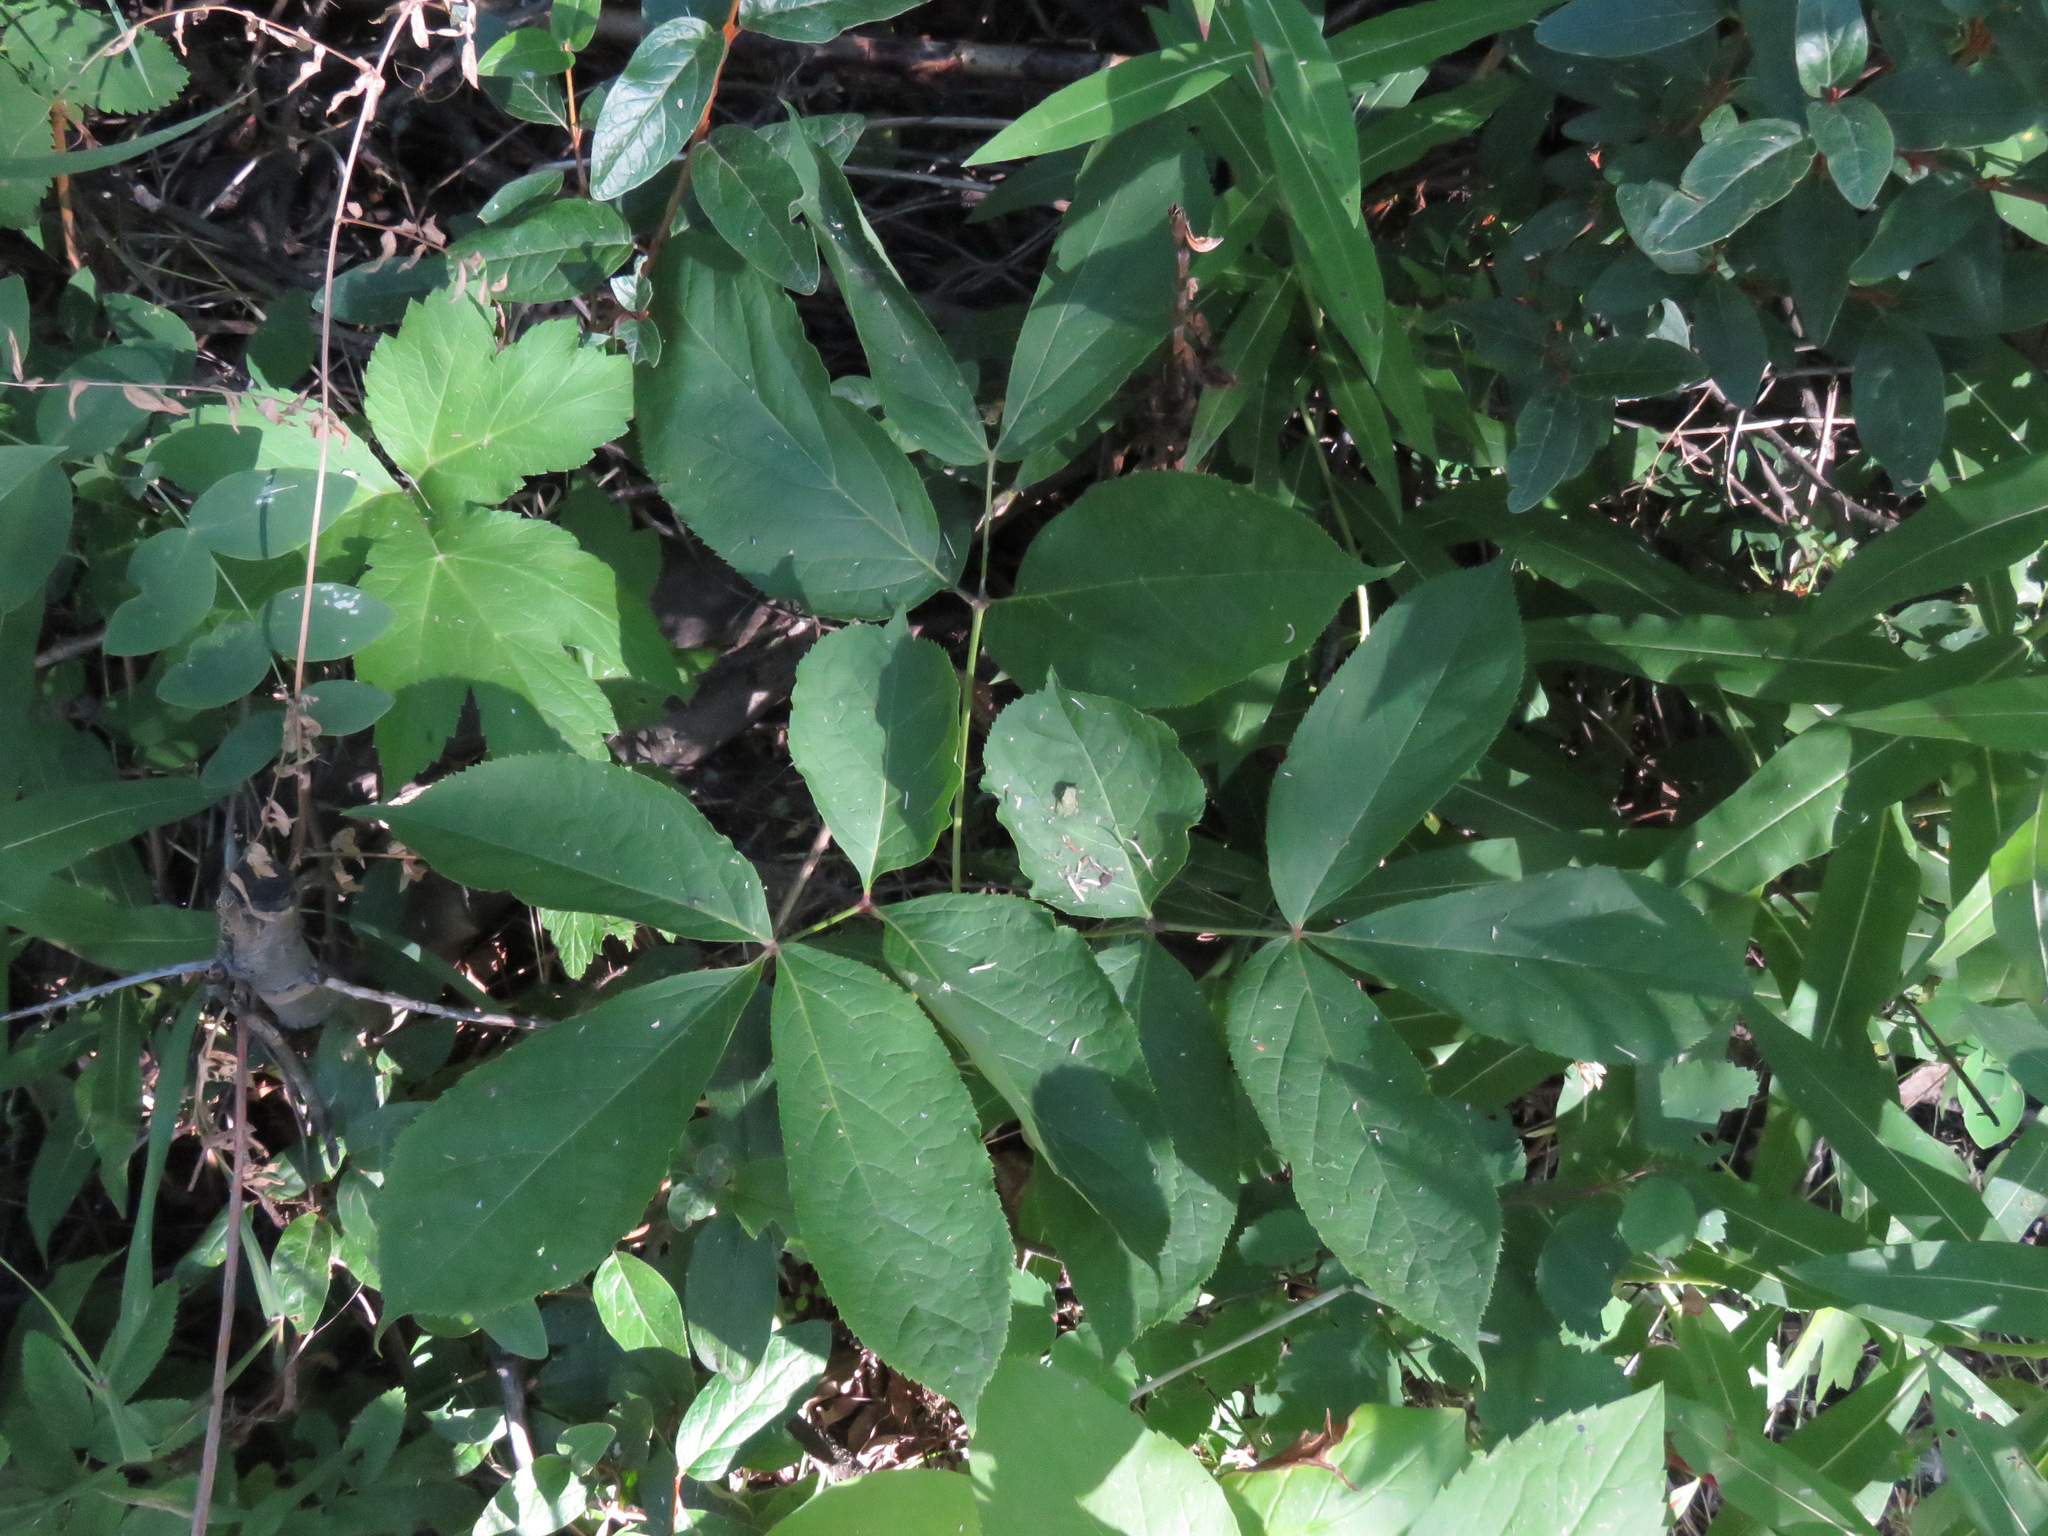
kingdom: Plantae
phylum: Tracheophyta
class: Magnoliopsida
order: Apiales
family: Araliaceae
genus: Aralia
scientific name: Aralia nudicaulis
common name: Wild sarsaparilla
